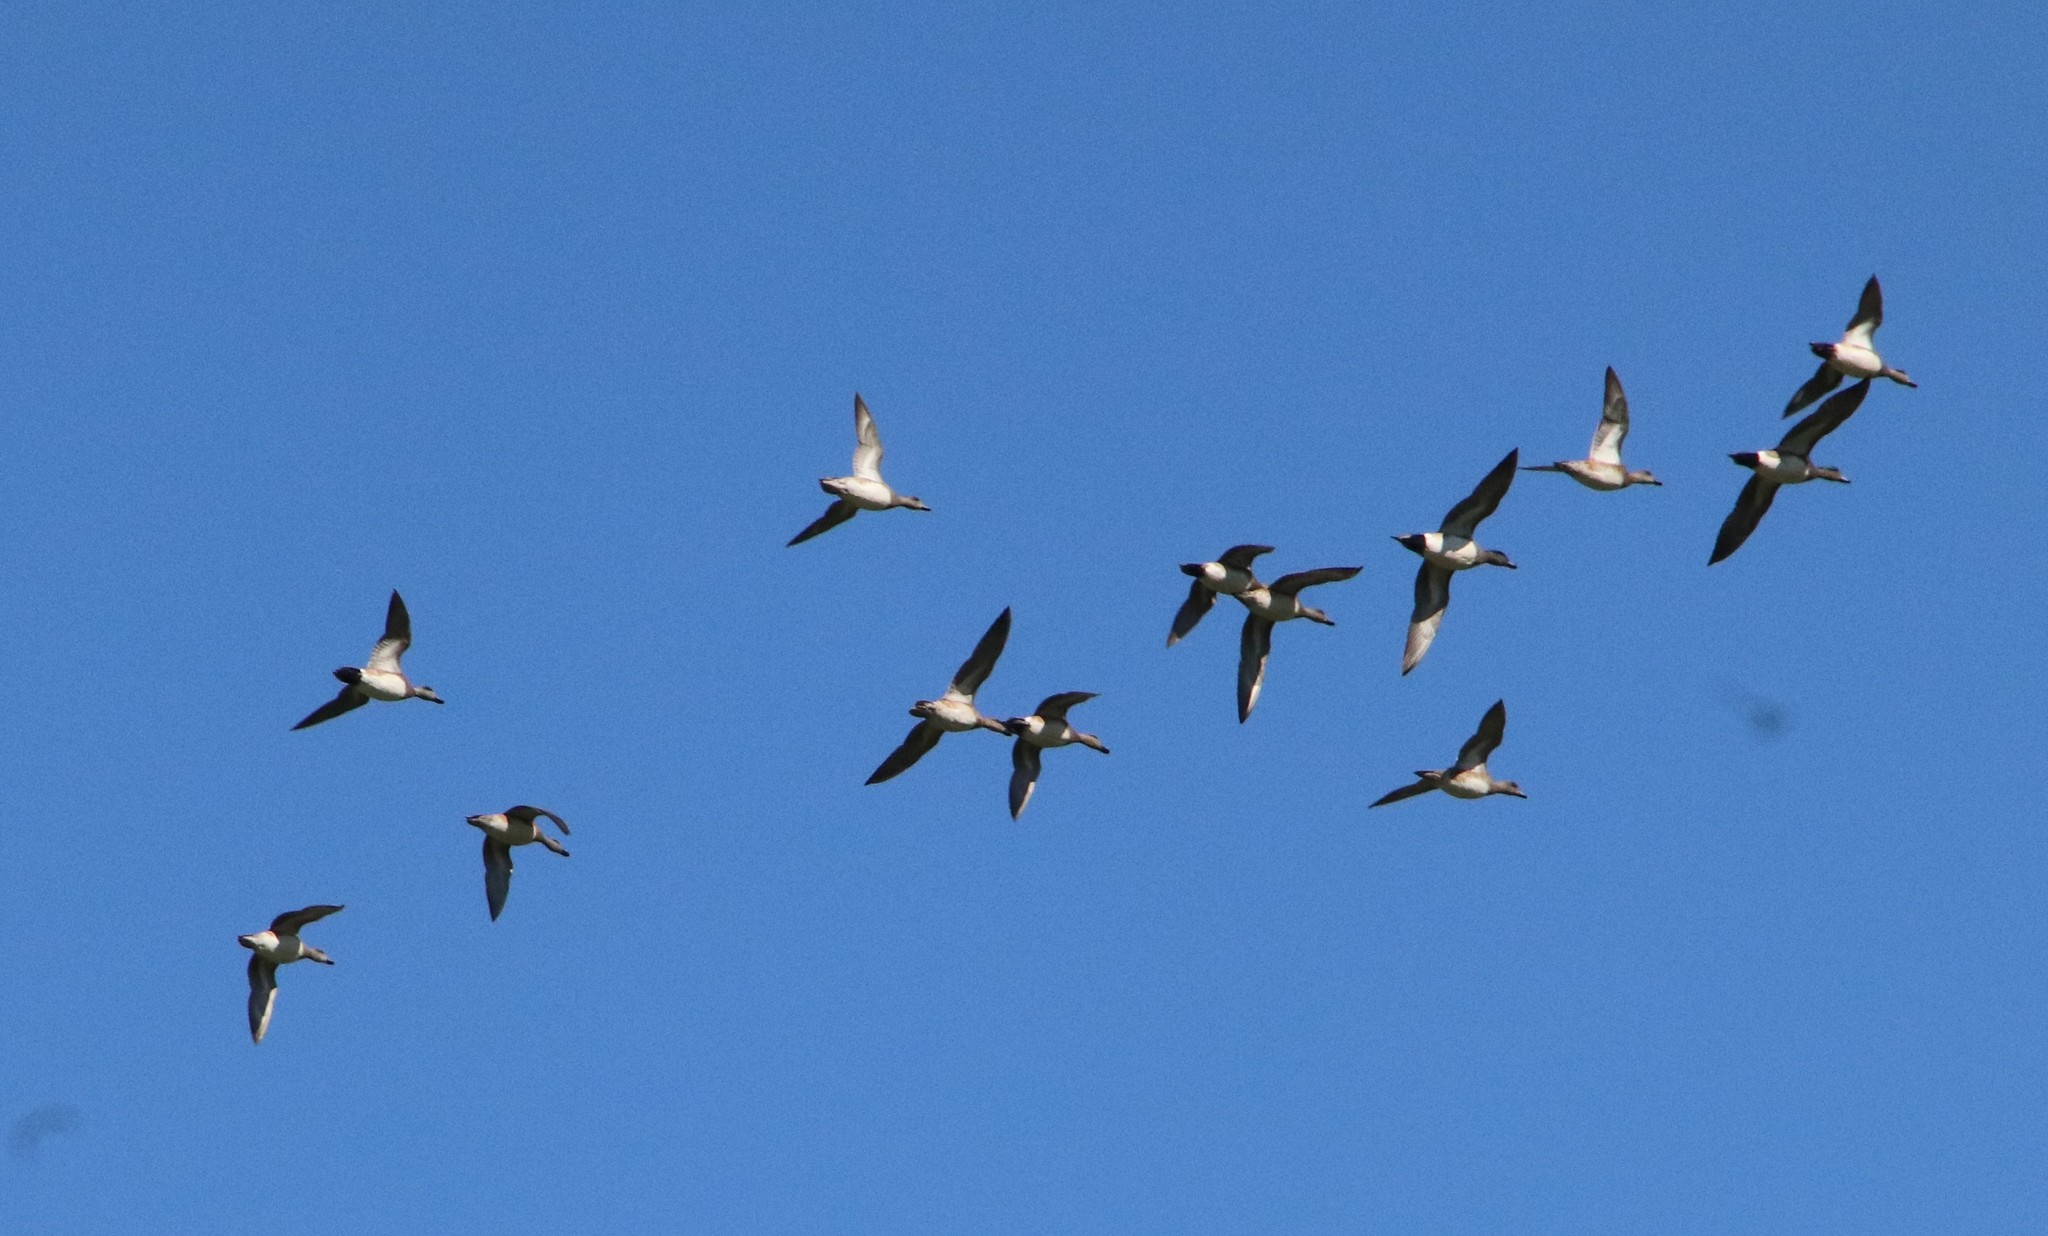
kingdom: Animalia
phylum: Chordata
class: Aves
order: Anseriformes
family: Anatidae
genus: Mareca
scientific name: Mareca americana
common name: American wigeon
